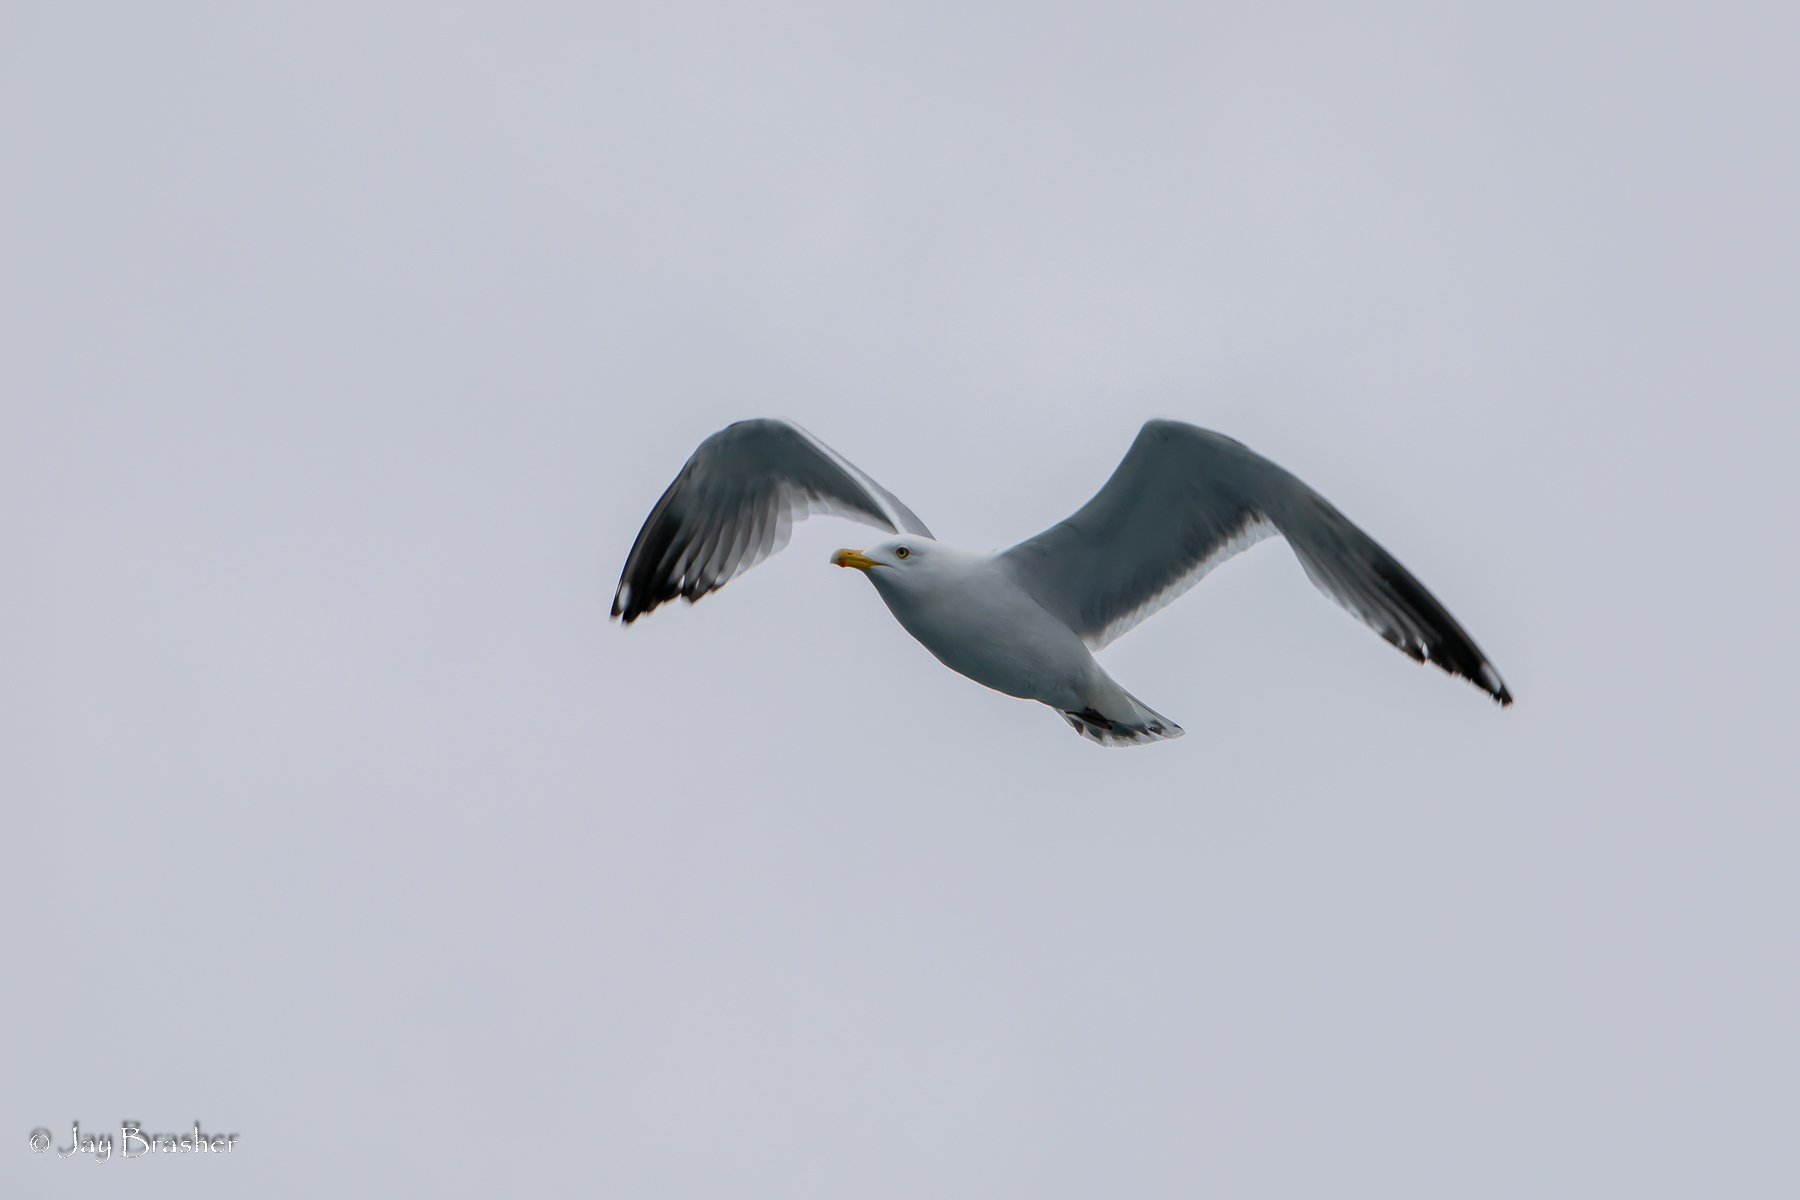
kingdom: Animalia
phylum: Chordata
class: Aves
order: Charadriiformes
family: Laridae
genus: Larus
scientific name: Larus argentatus
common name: Herring gull
